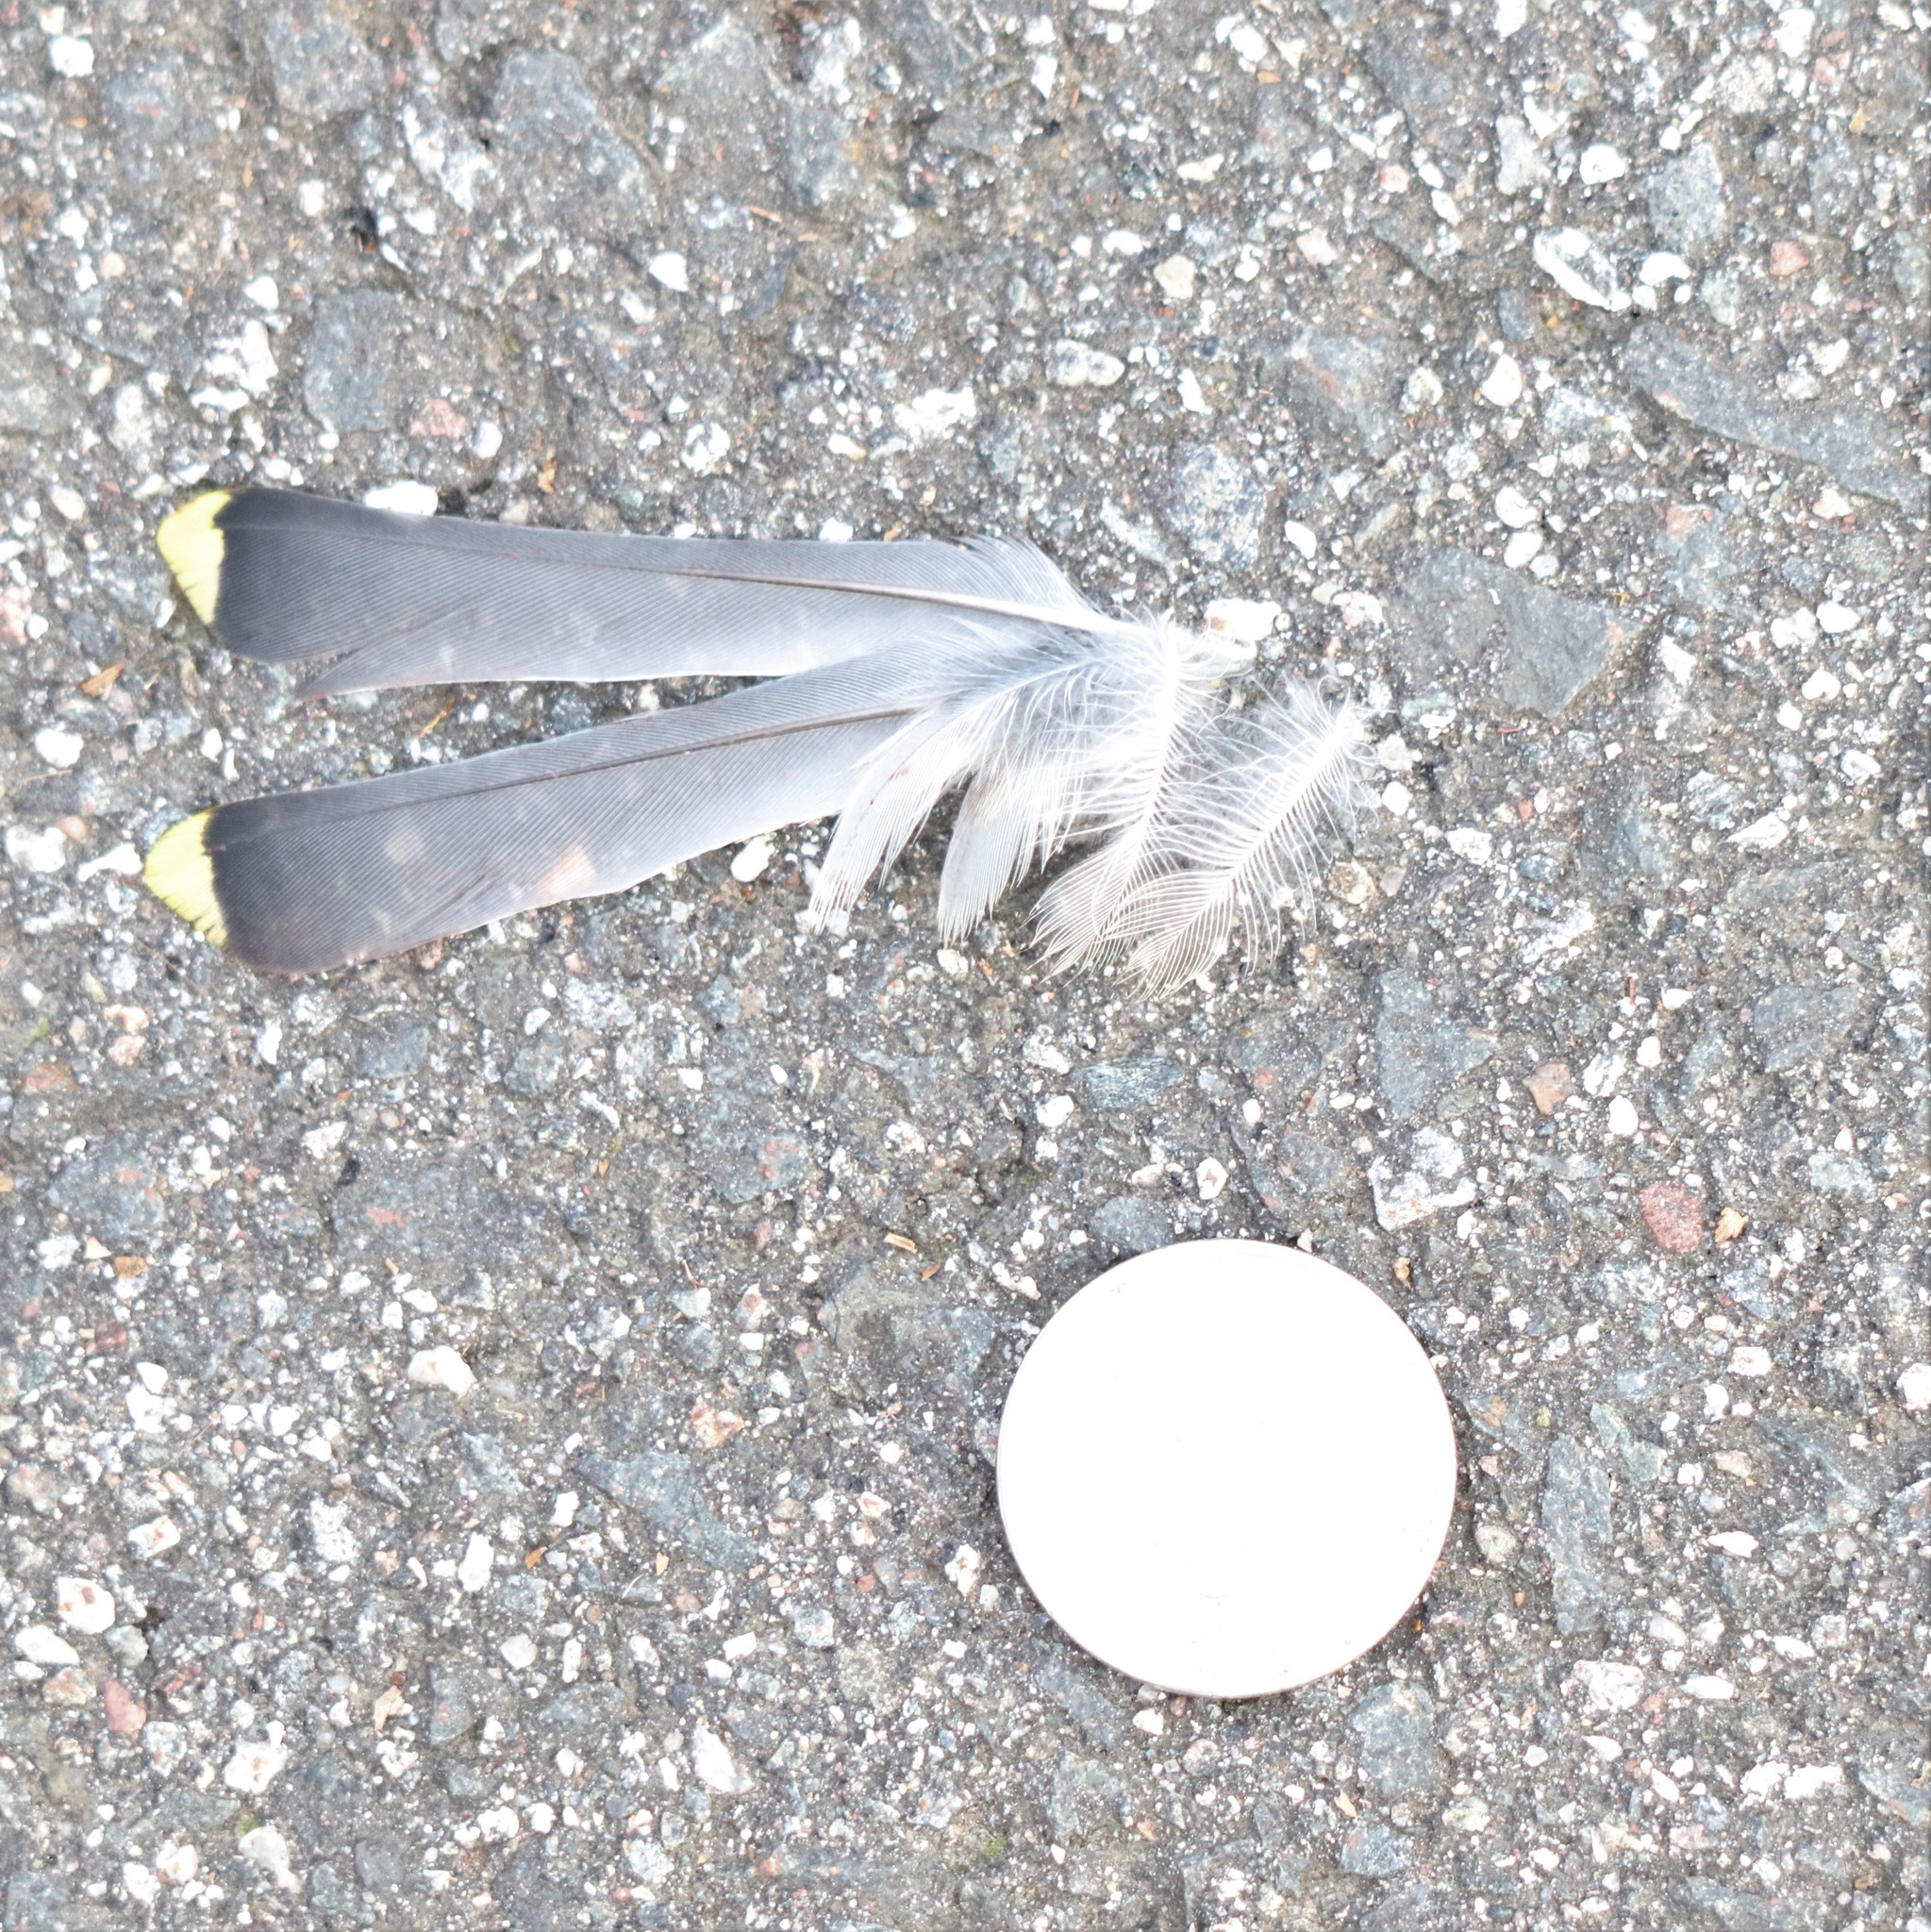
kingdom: Animalia
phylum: Chordata
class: Aves
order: Passeriformes
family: Bombycillidae
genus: Bombycilla
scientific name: Bombycilla cedrorum
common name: Cedar waxwing
